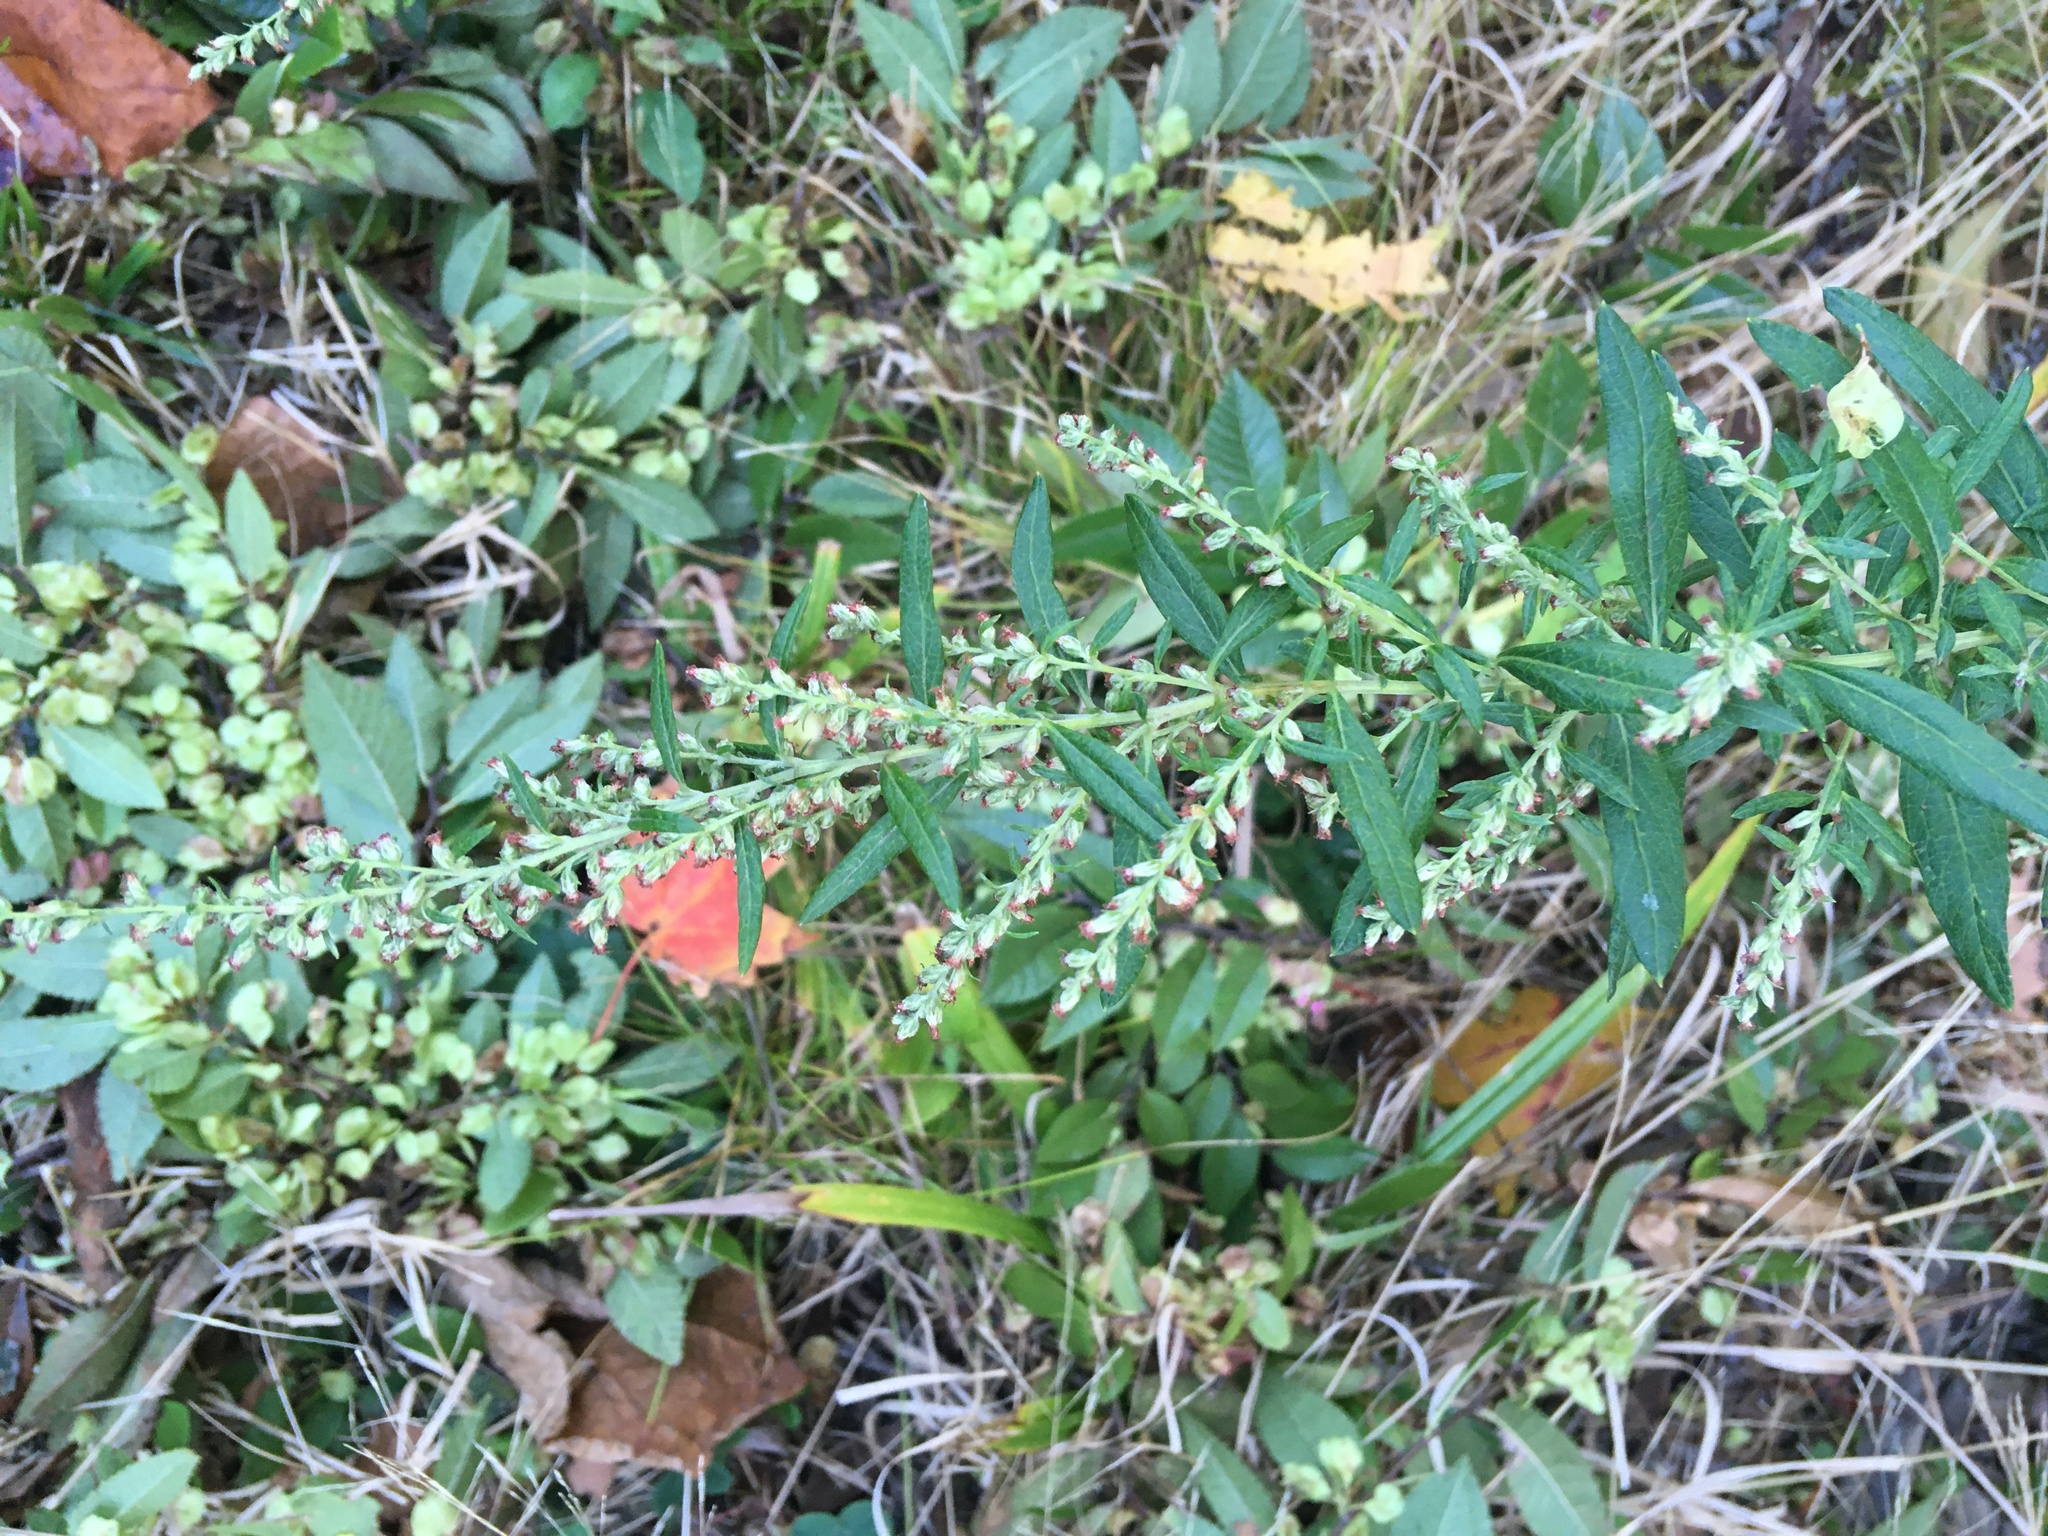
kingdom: Plantae
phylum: Tracheophyta
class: Magnoliopsida
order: Asterales
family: Asteraceae
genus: Artemisia
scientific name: Artemisia vulgaris
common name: Mugwort
